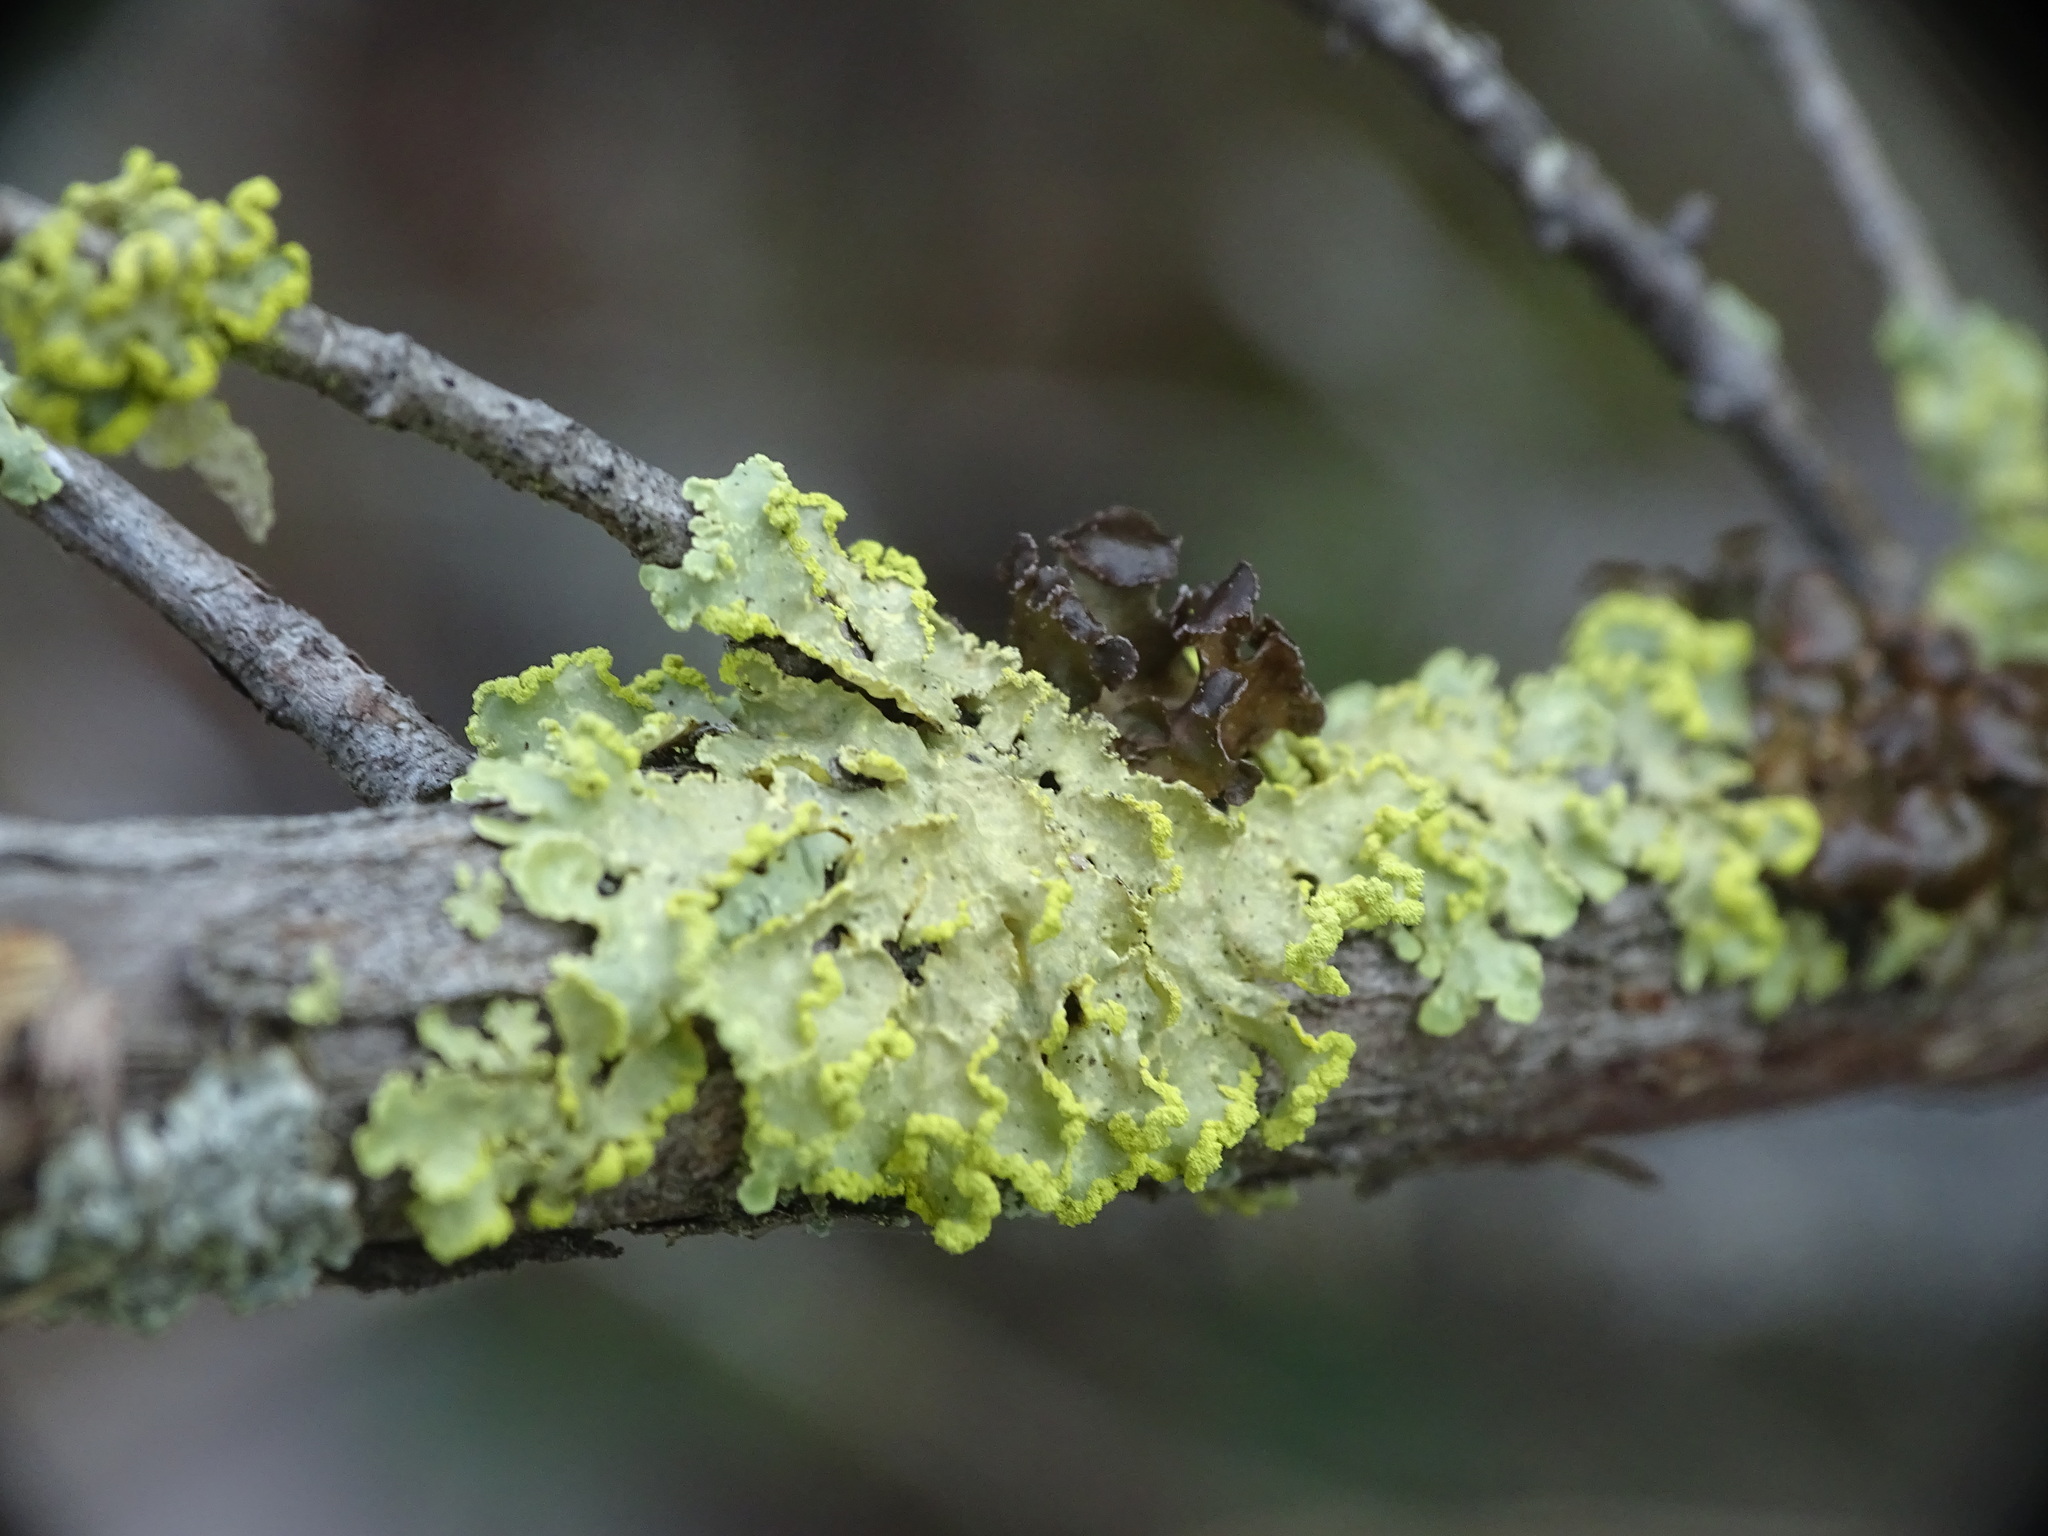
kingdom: Fungi
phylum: Ascomycota
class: Lecanoromycetes
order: Lecanorales
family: Parmeliaceae
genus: Vulpicida
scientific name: Vulpicida pinastri
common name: Powdered sunshine lichen
